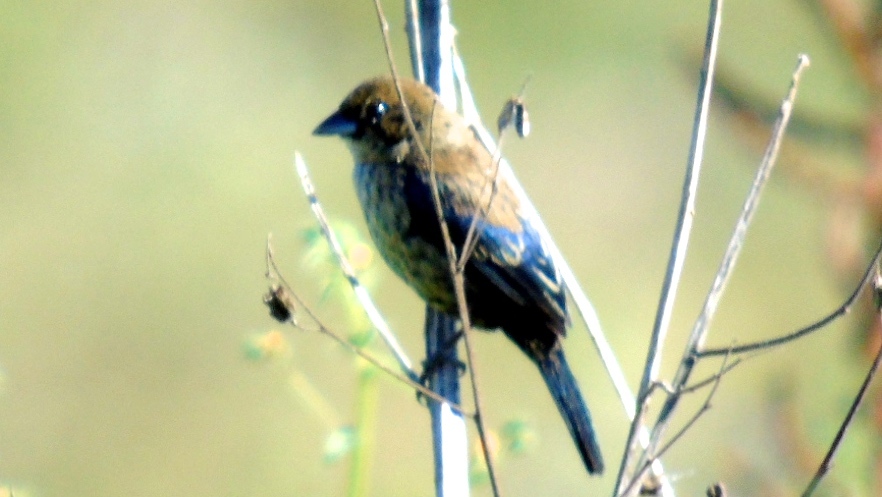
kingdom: Animalia
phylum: Chordata
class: Aves
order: Passeriformes
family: Thraupidae
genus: Volatinia
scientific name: Volatinia jacarina
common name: Blue-black grassquit
